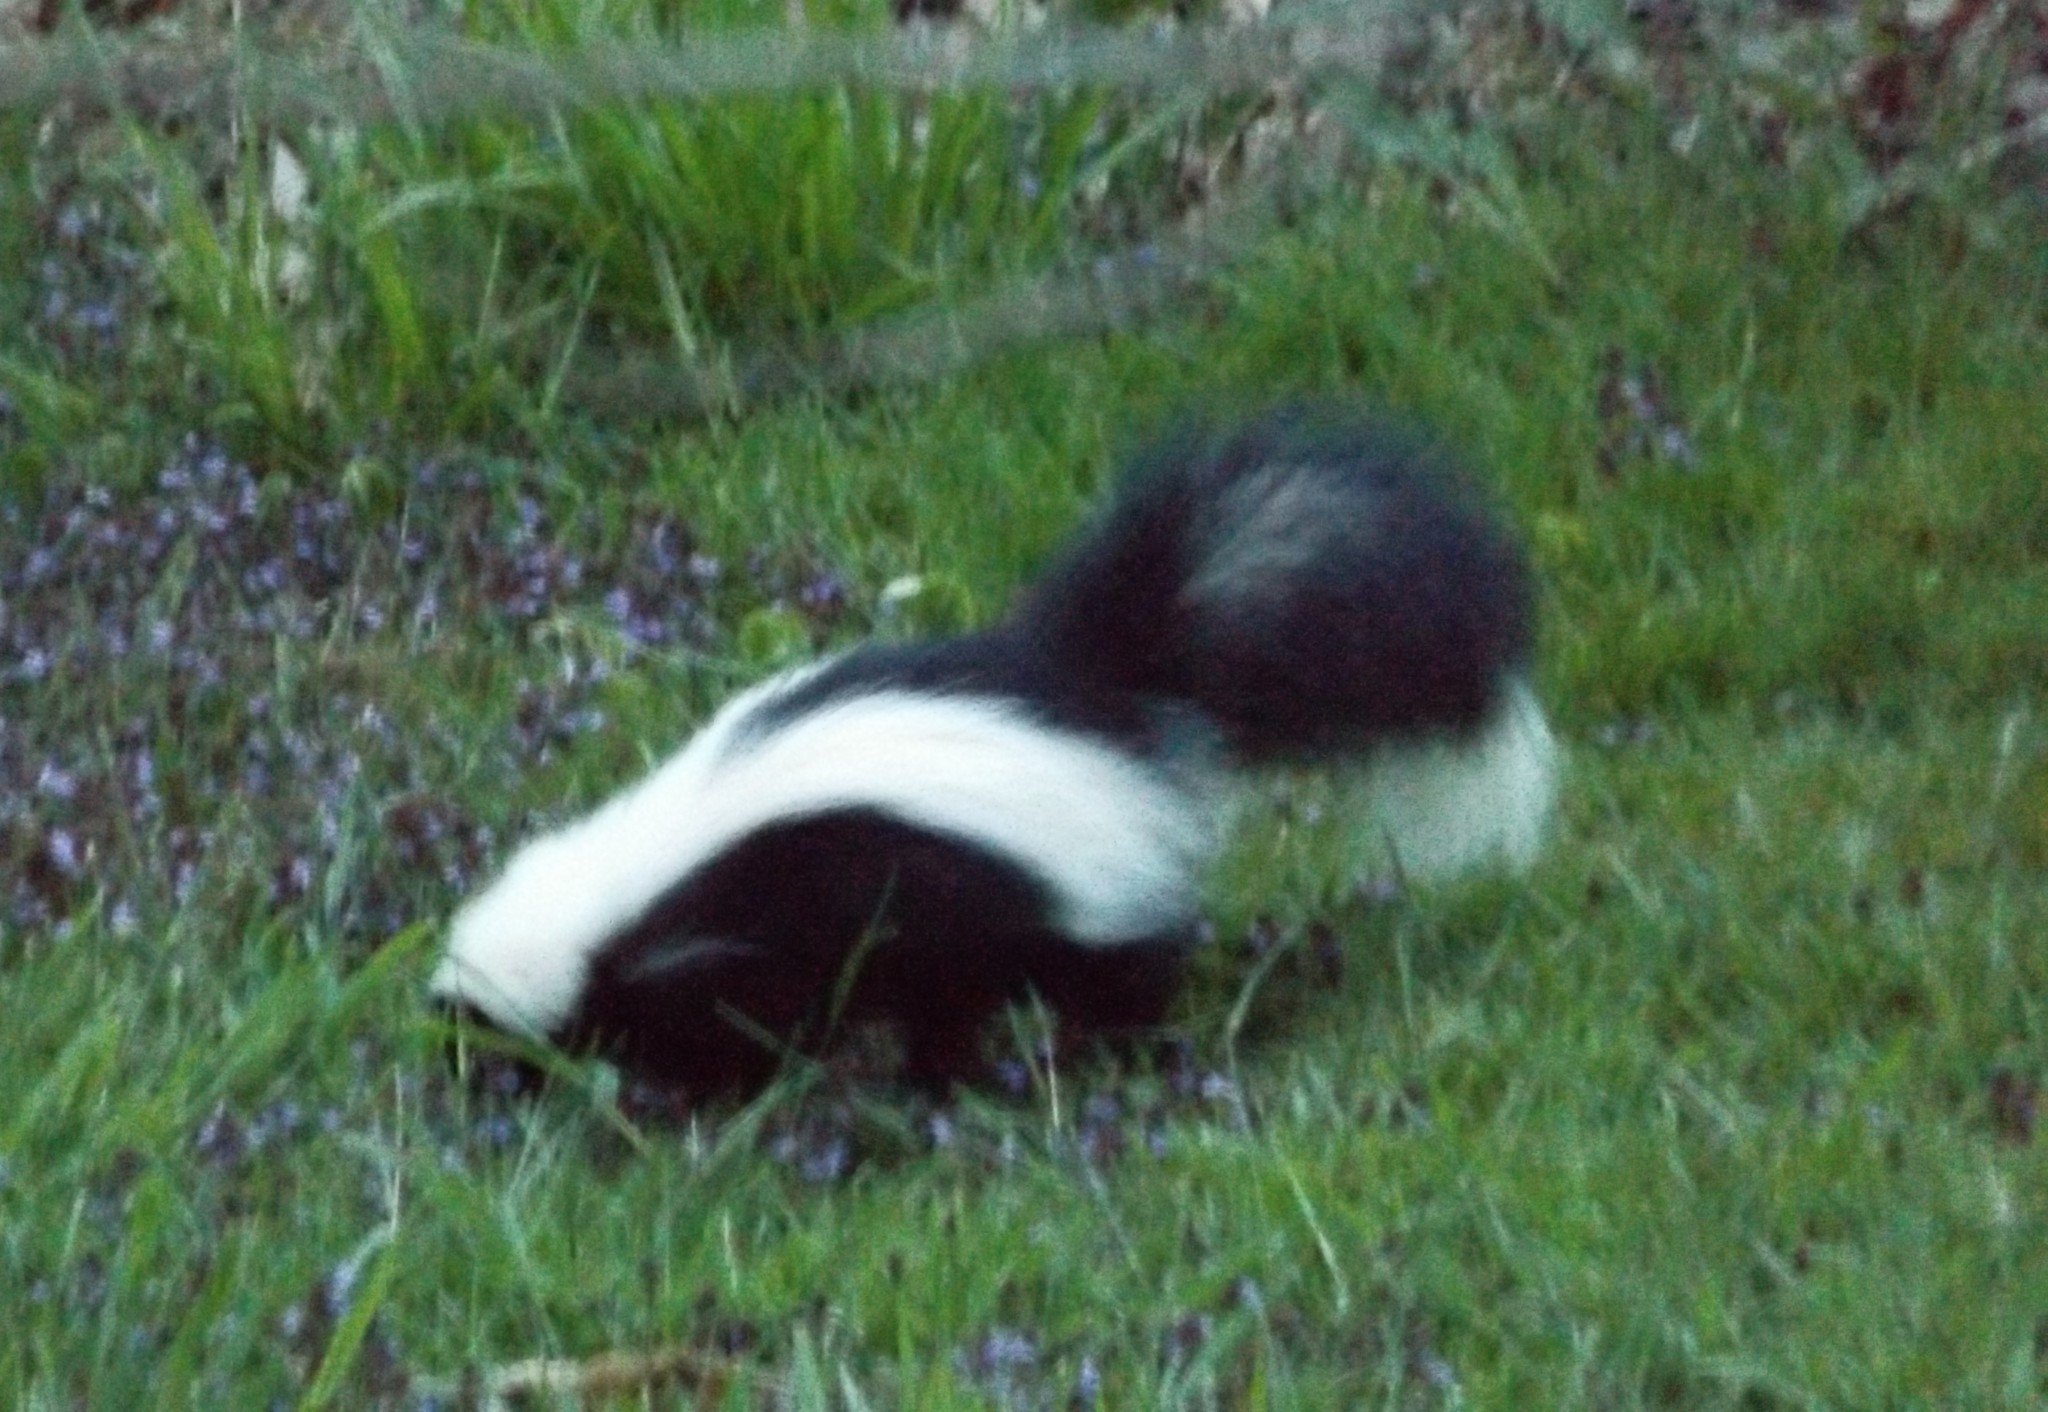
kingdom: Animalia
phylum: Chordata
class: Mammalia
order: Carnivora
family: Mephitidae
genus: Mephitis
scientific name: Mephitis mephitis
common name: Striped skunk
